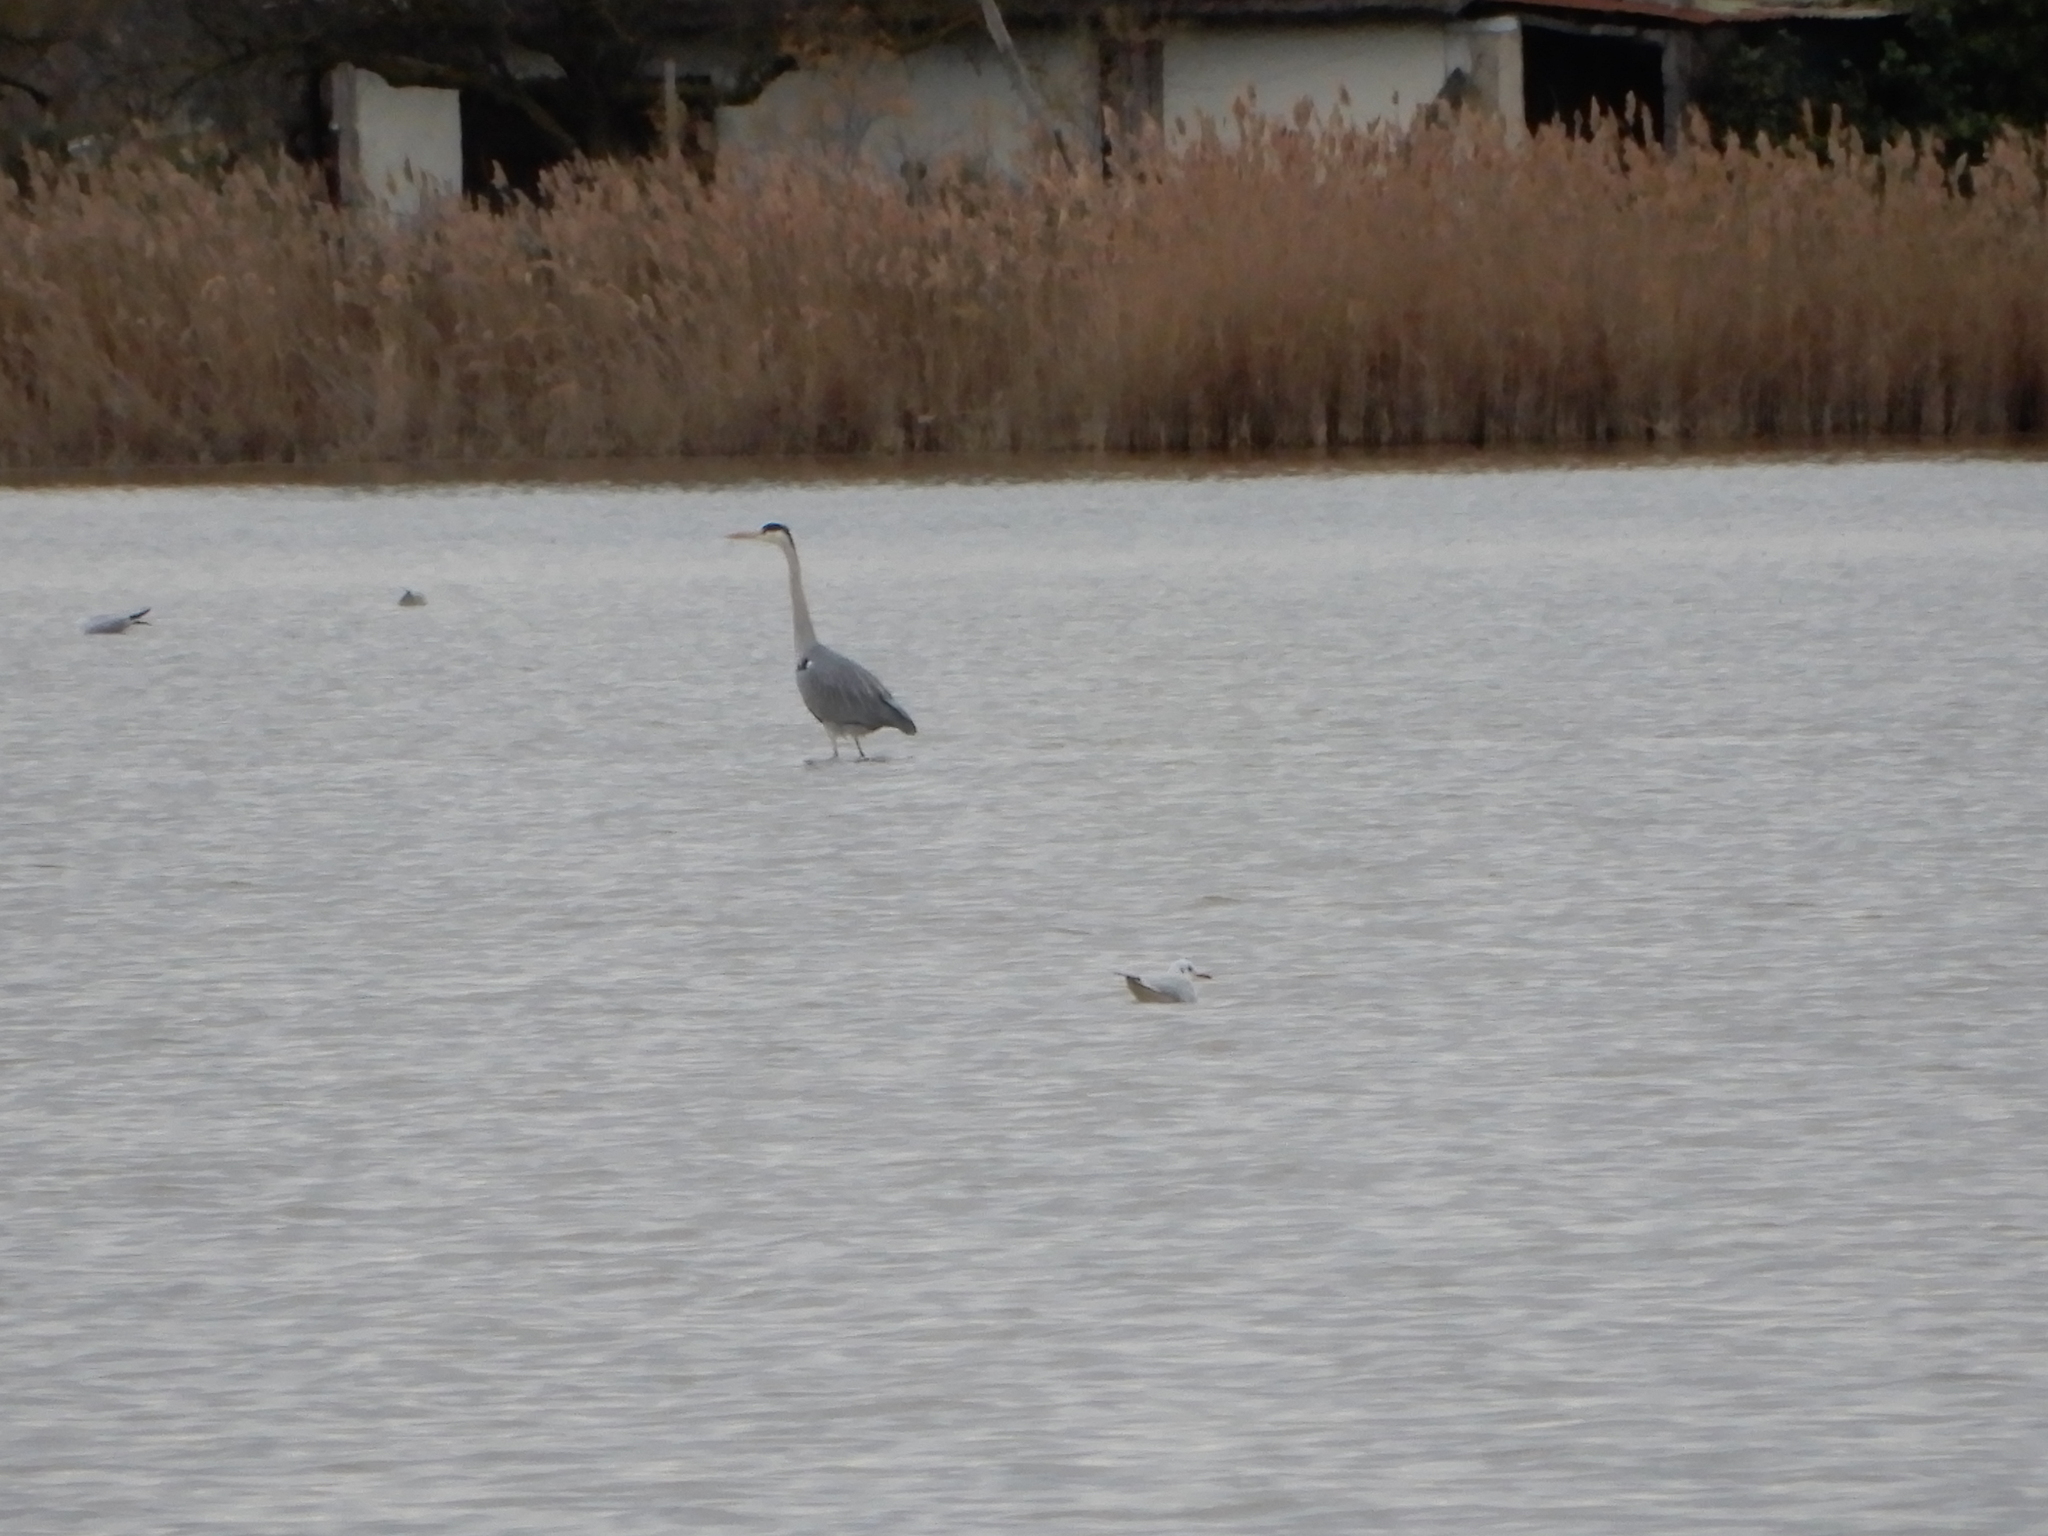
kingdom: Animalia
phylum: Chordata
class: Aves
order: Pelecaniformes
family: Ardeidae
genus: Ardea
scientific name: Ardea cinerea
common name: Grey heron
